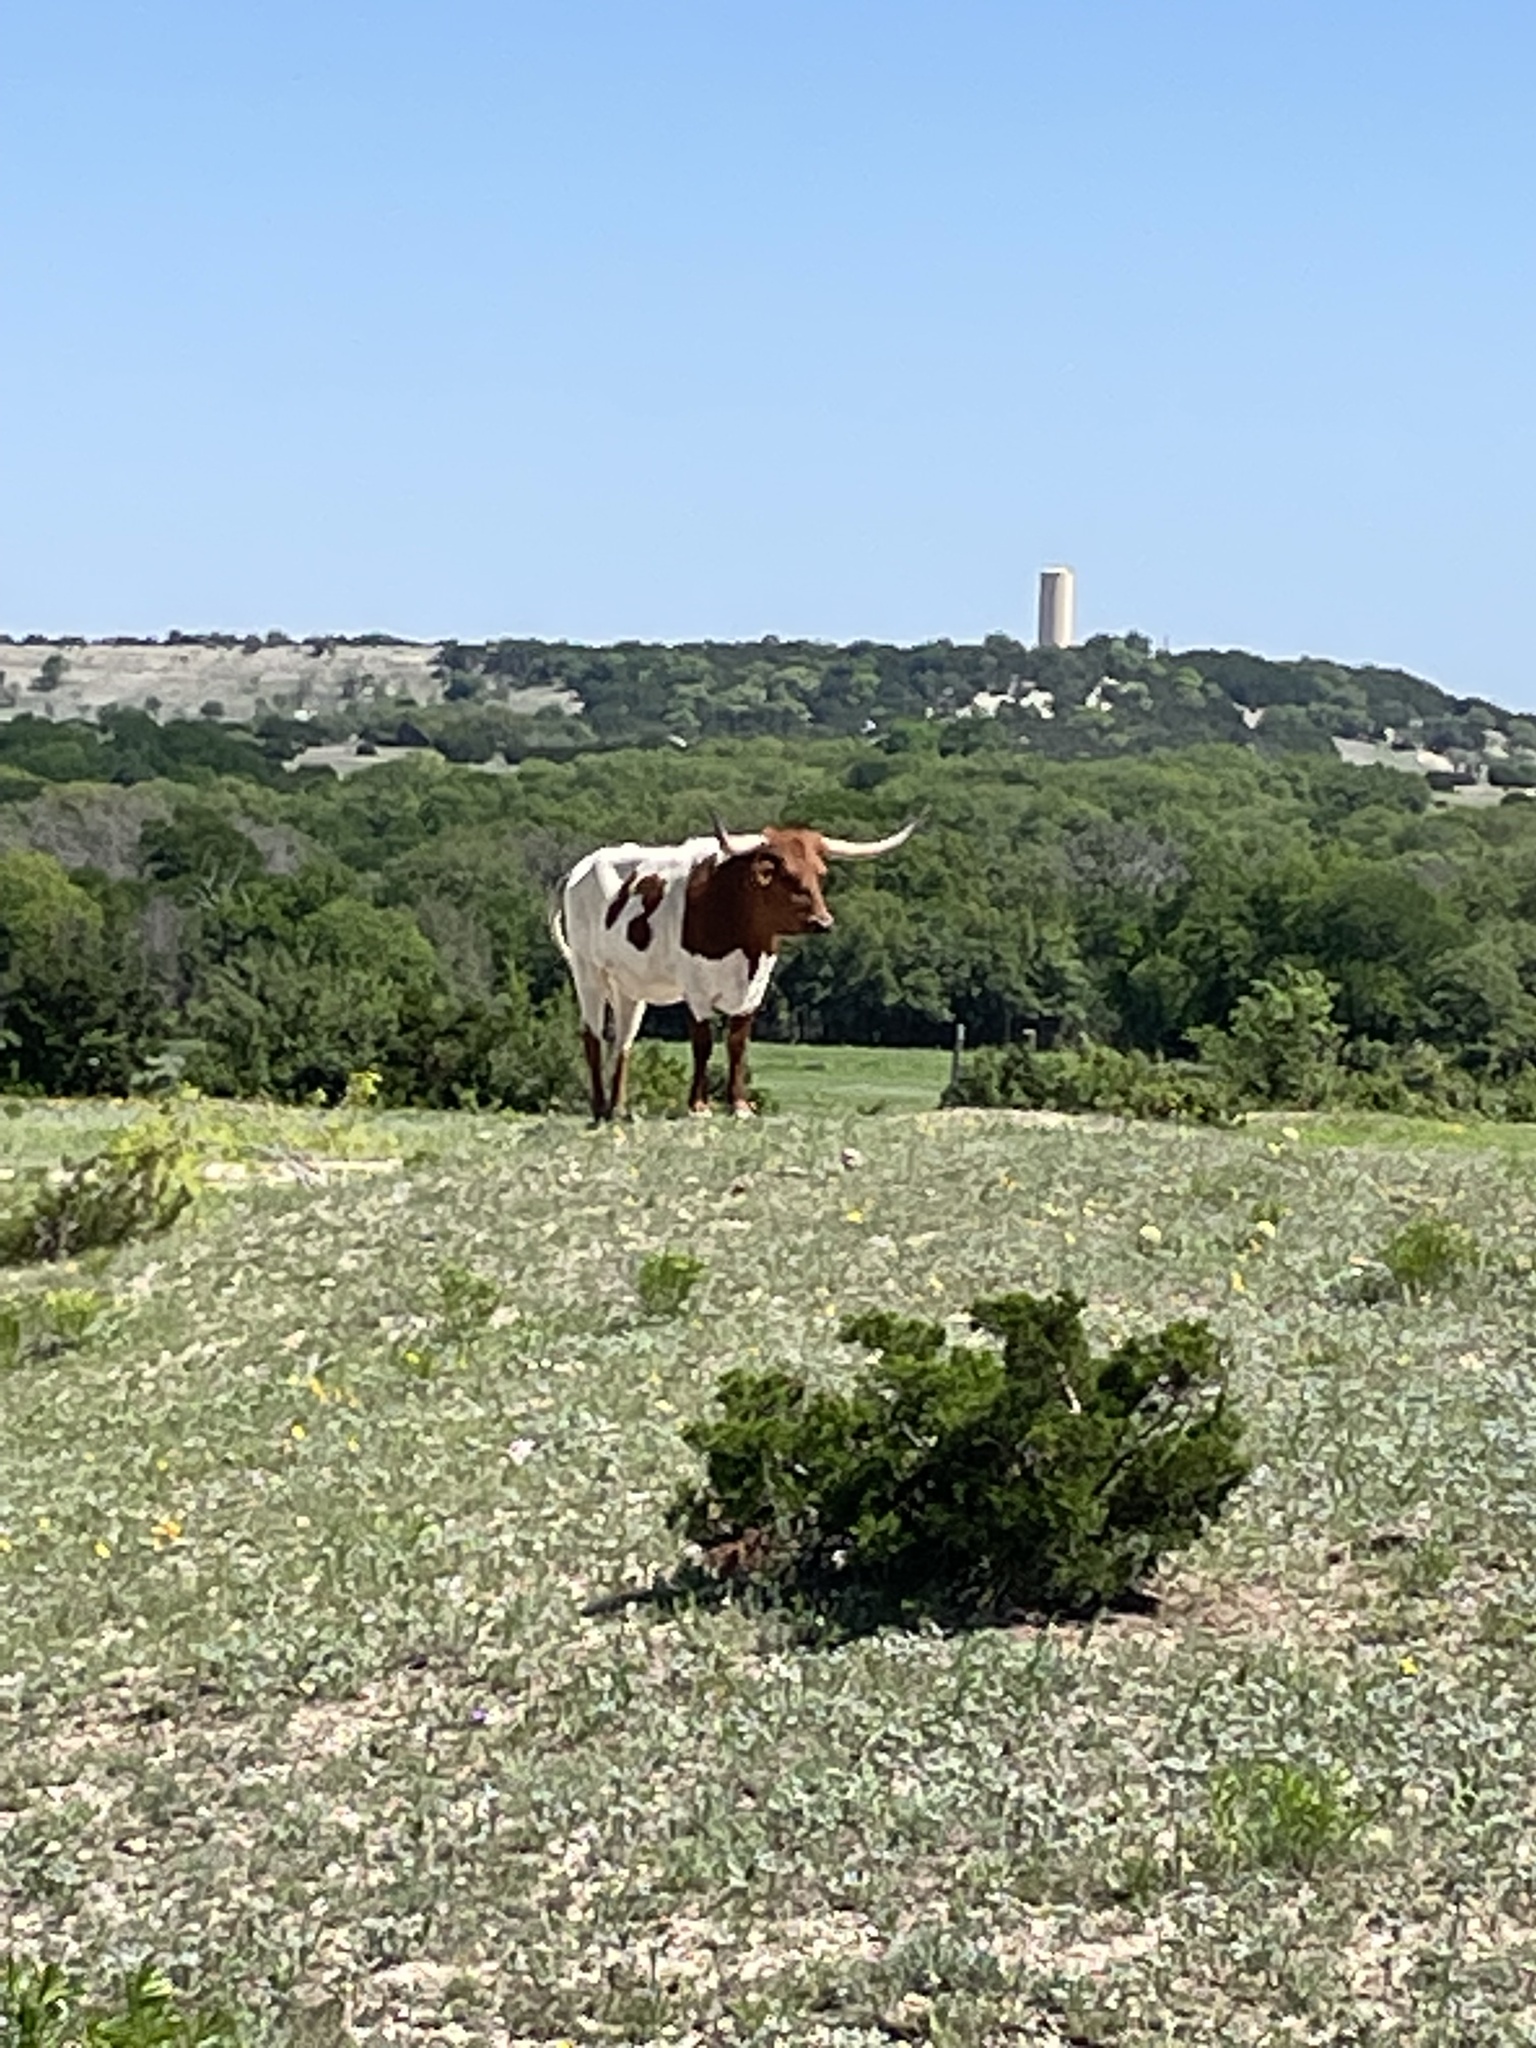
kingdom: Animalia
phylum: Chordata
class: Mammalia
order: Artiodactyla
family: Bovidae
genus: Bos
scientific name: Bos taurus
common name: Domesticated cattle
